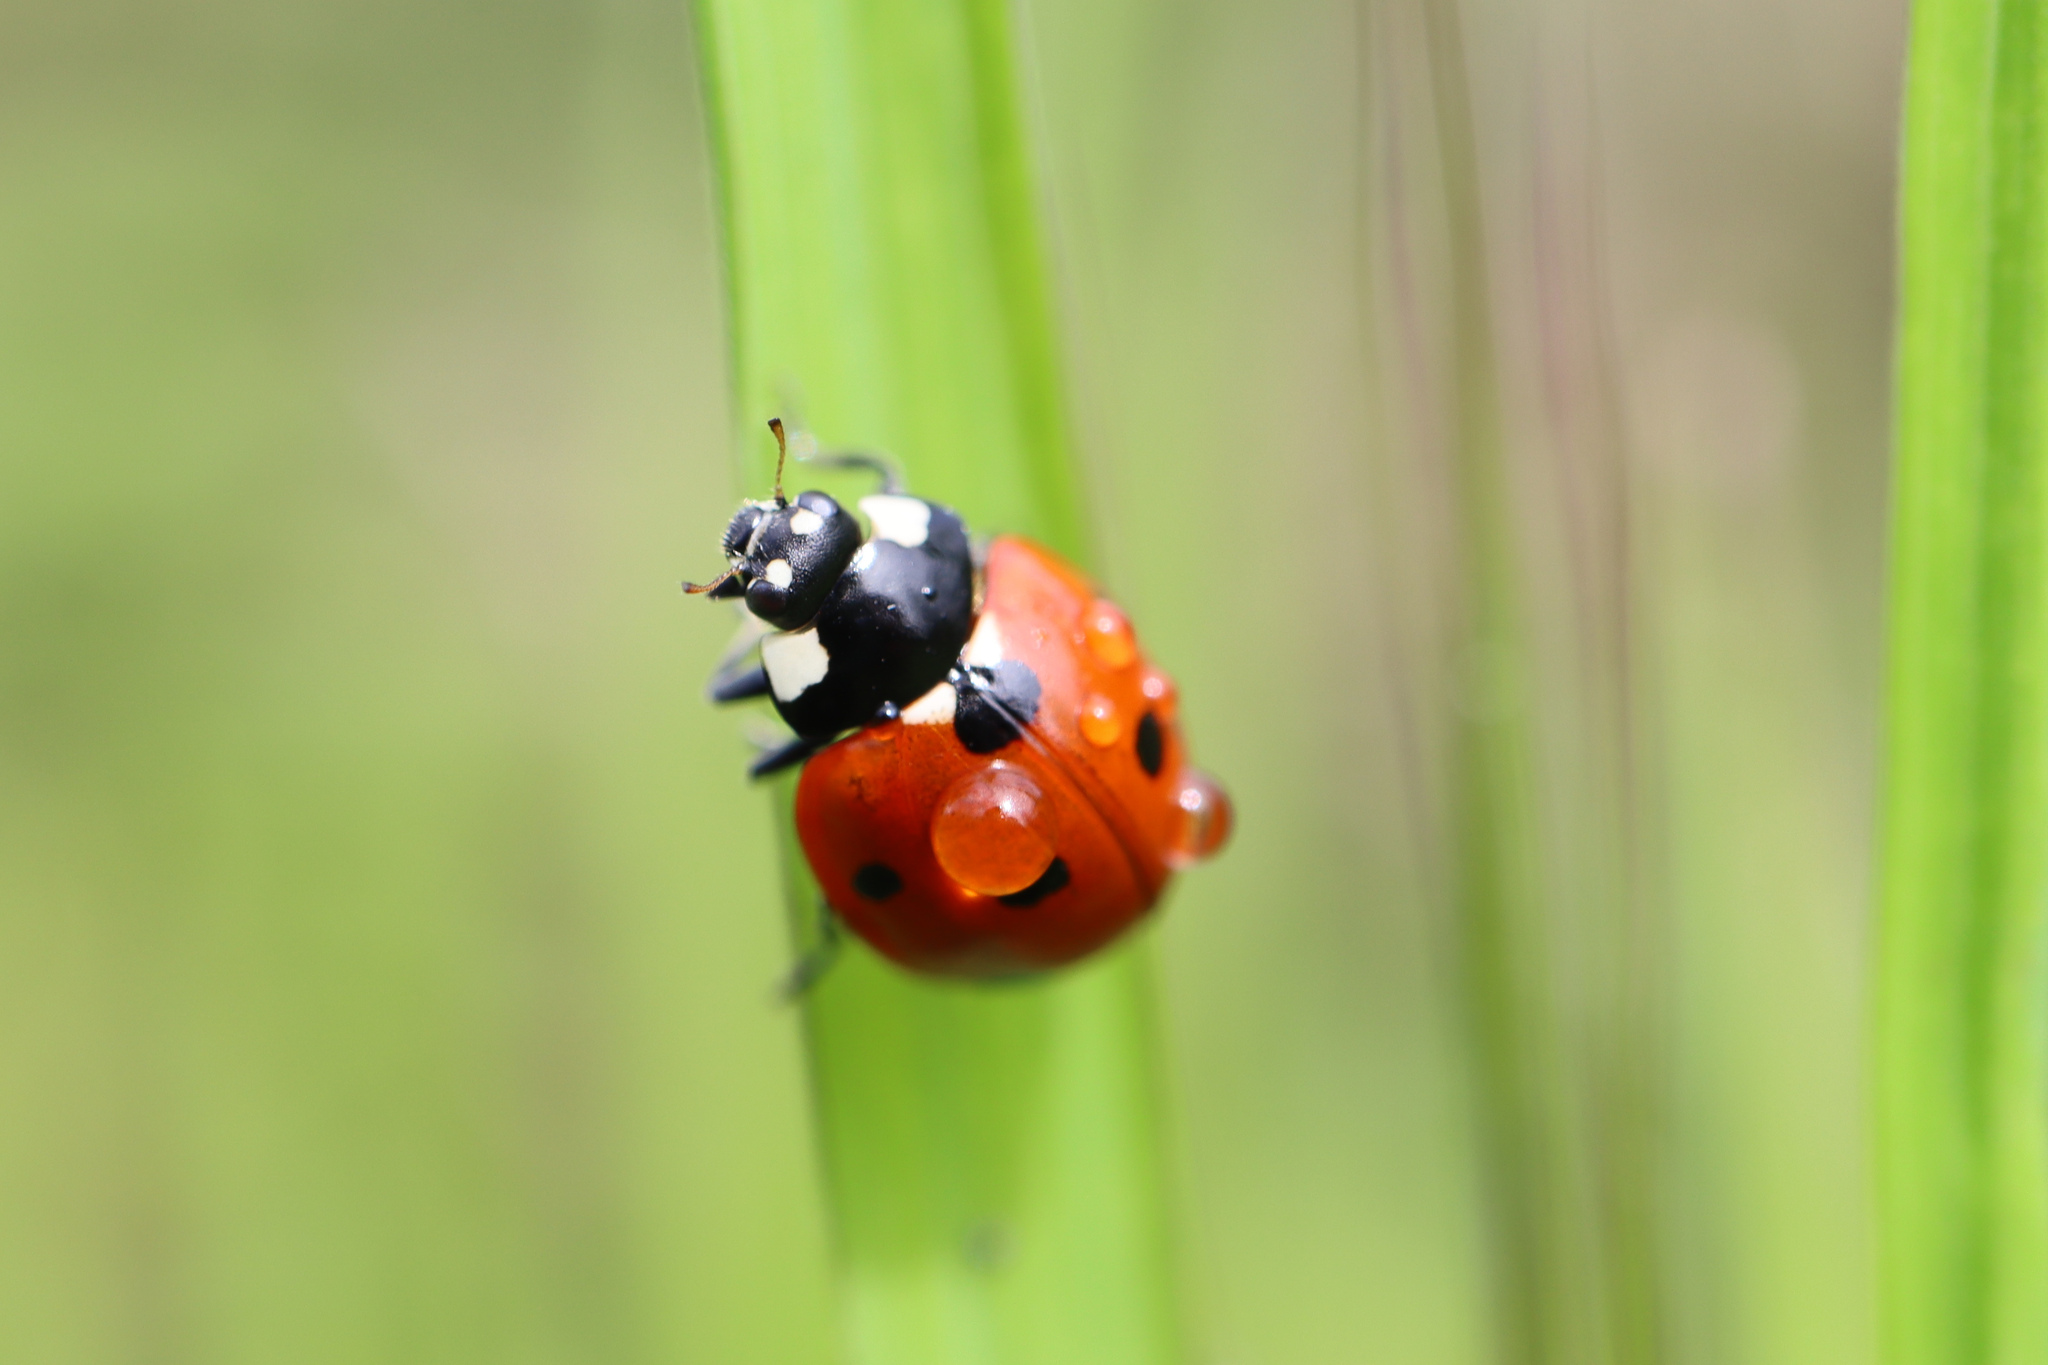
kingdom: Animalia
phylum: Arthropoda
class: Insecta
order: Coleoptera
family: Coccinellidae
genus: Coccinella
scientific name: Coccinella septempunctata
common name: Sevenspotted lady beetle
